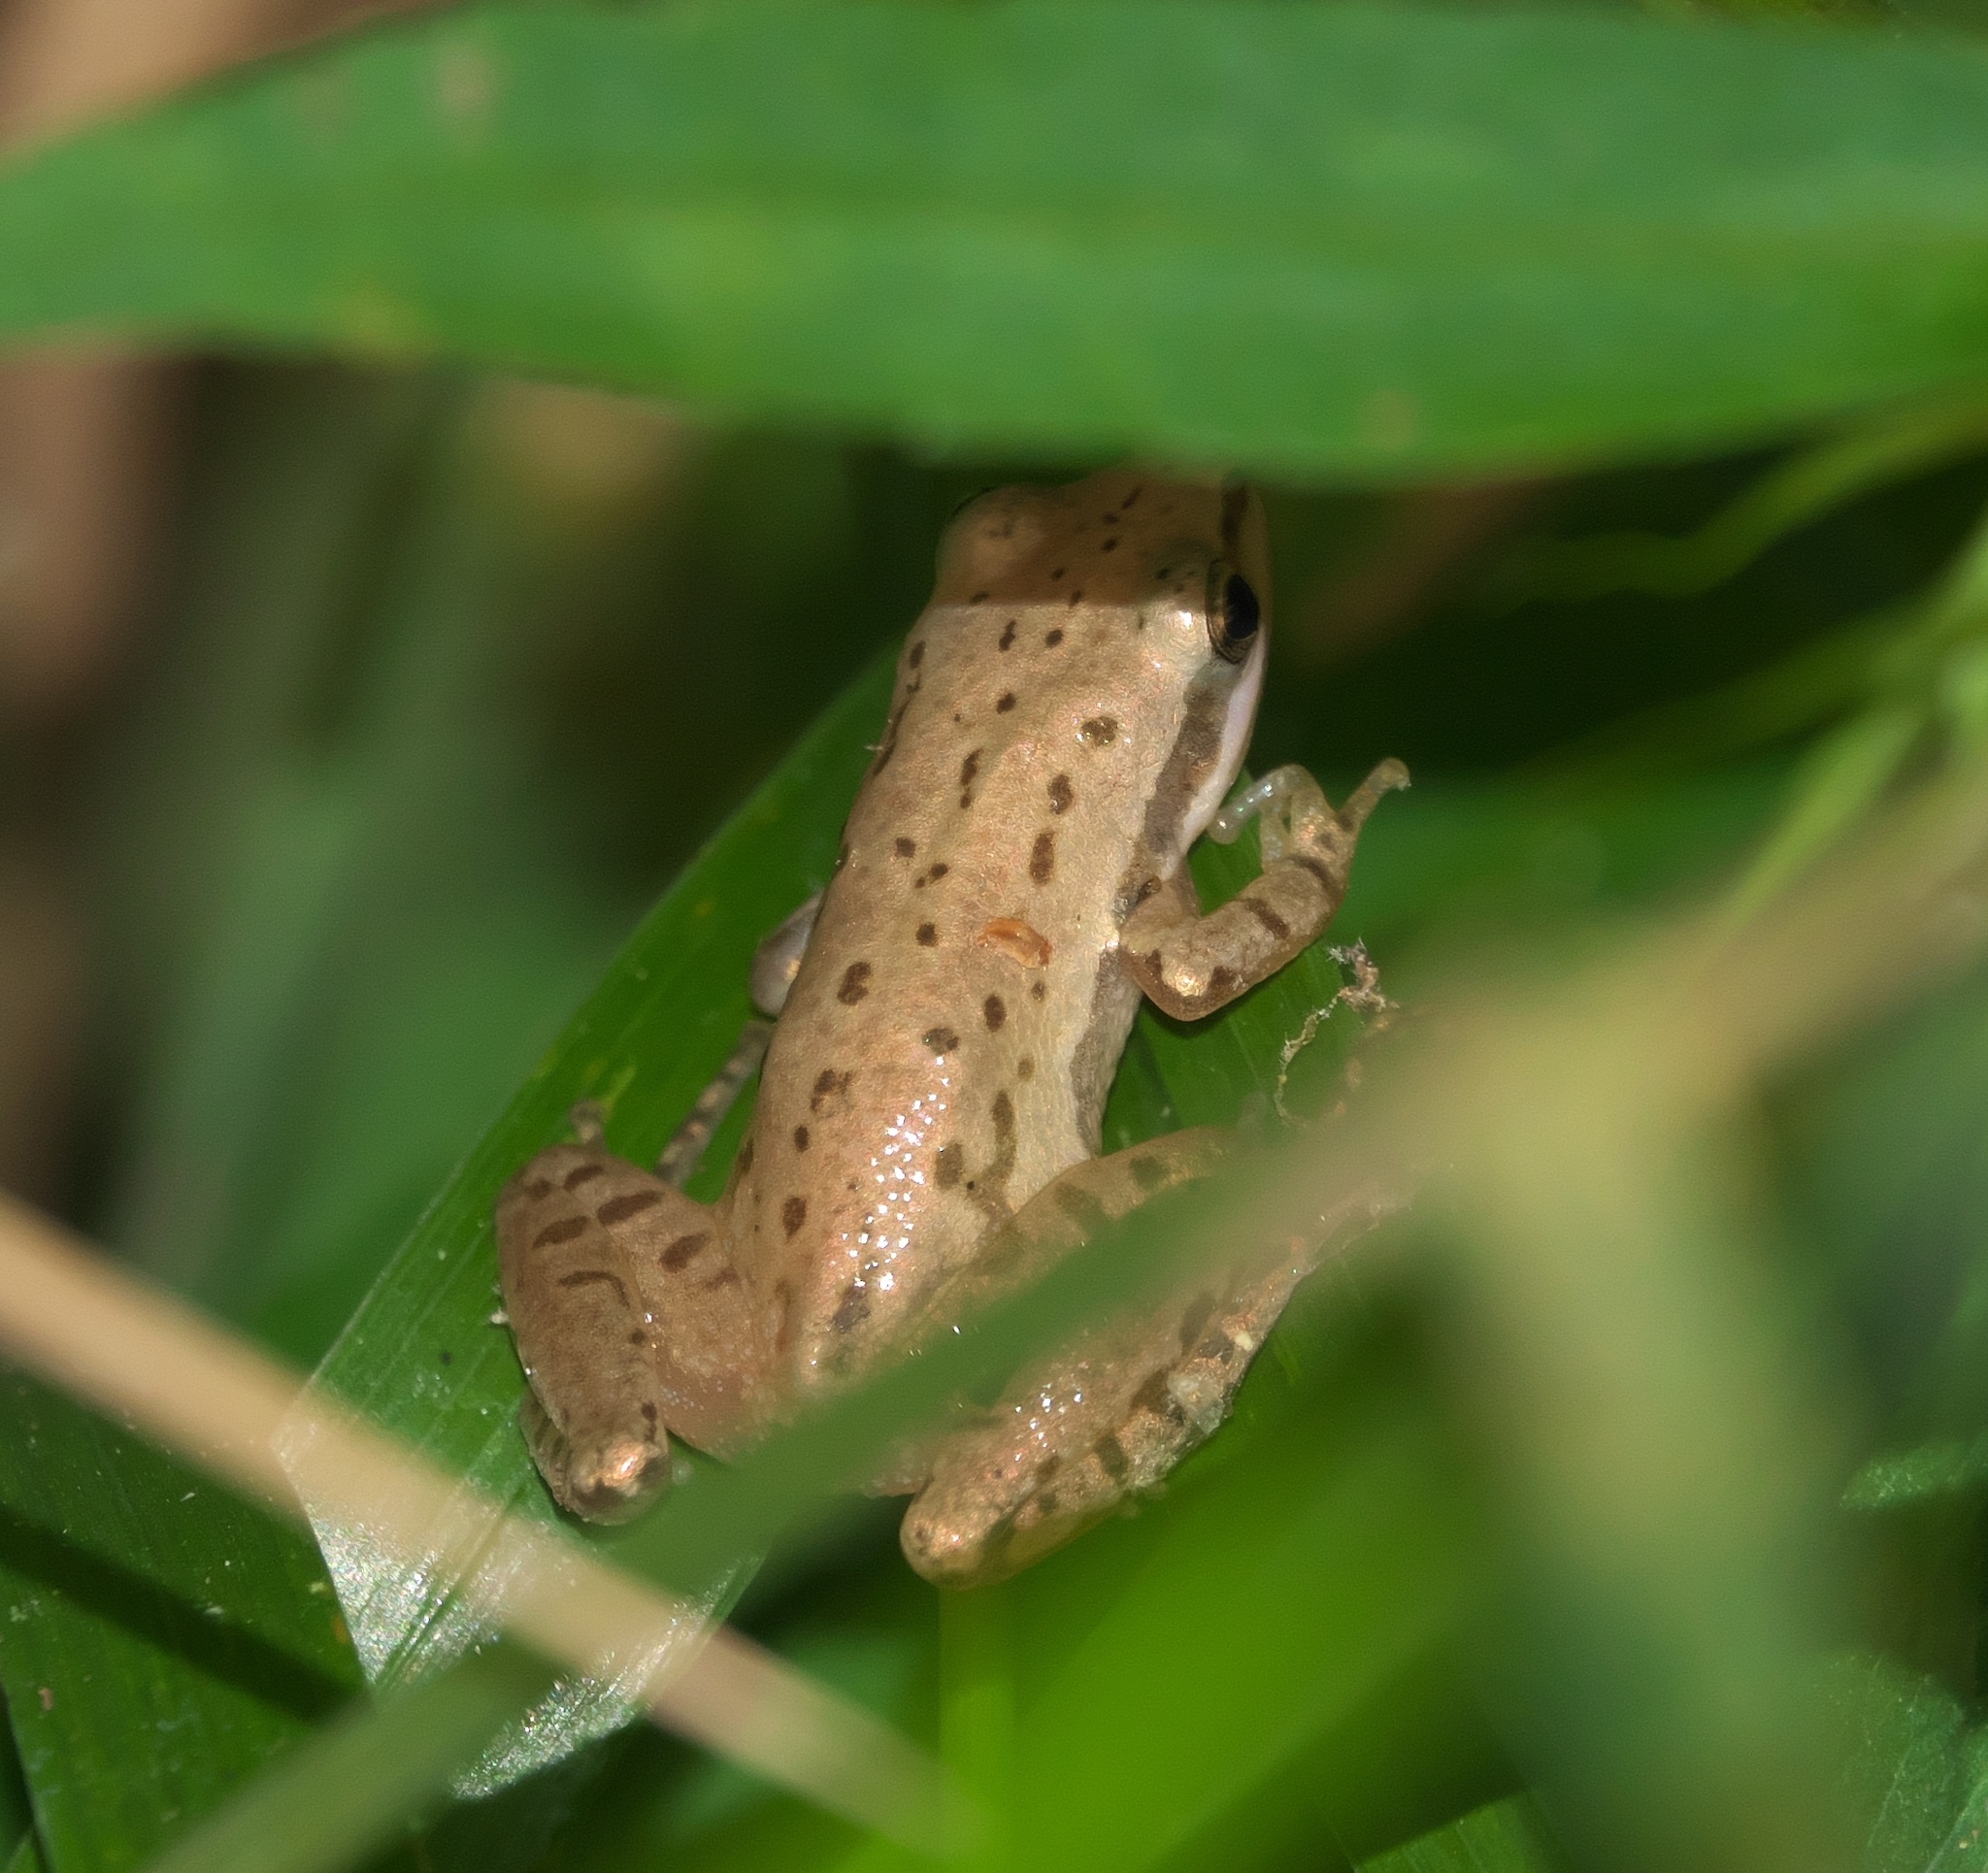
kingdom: Animalia
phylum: Chordata
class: Amphibia
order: Anura
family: Hylidae
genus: Pseudacris
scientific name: Pseudacris fouquettei
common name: Cajun chorus frog
